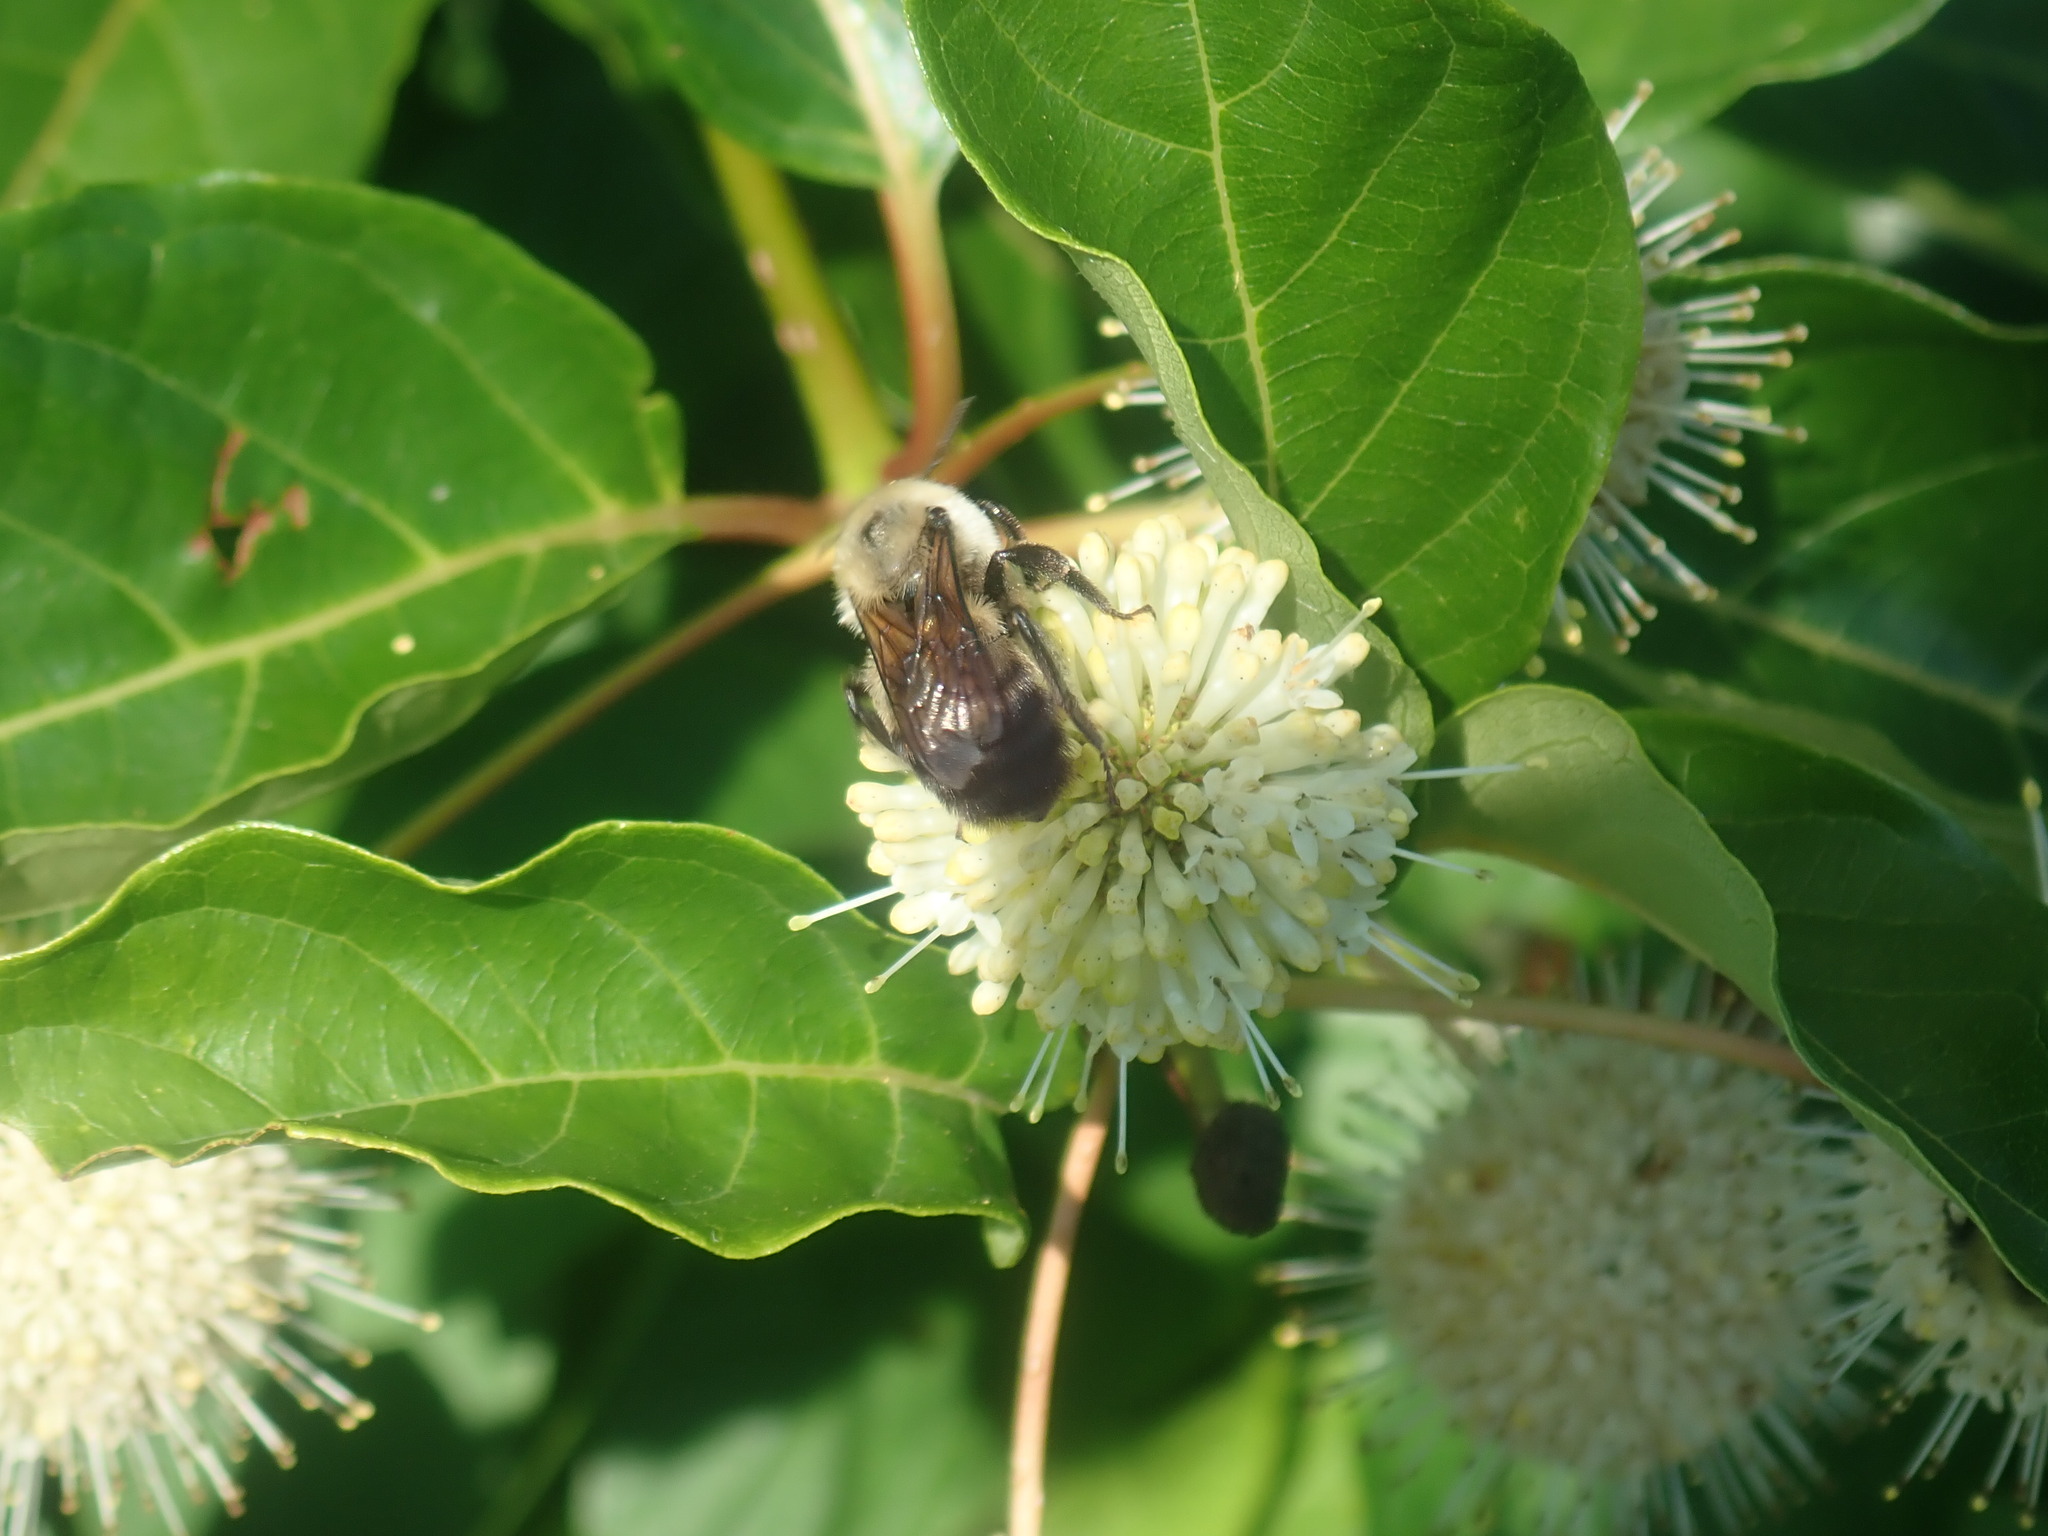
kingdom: Animalia
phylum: Arthropoda
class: Insecta
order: Hymenoptera
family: Apidae
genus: Bombus
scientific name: Bombus griseocollis
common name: Brown-belted bumble bee
